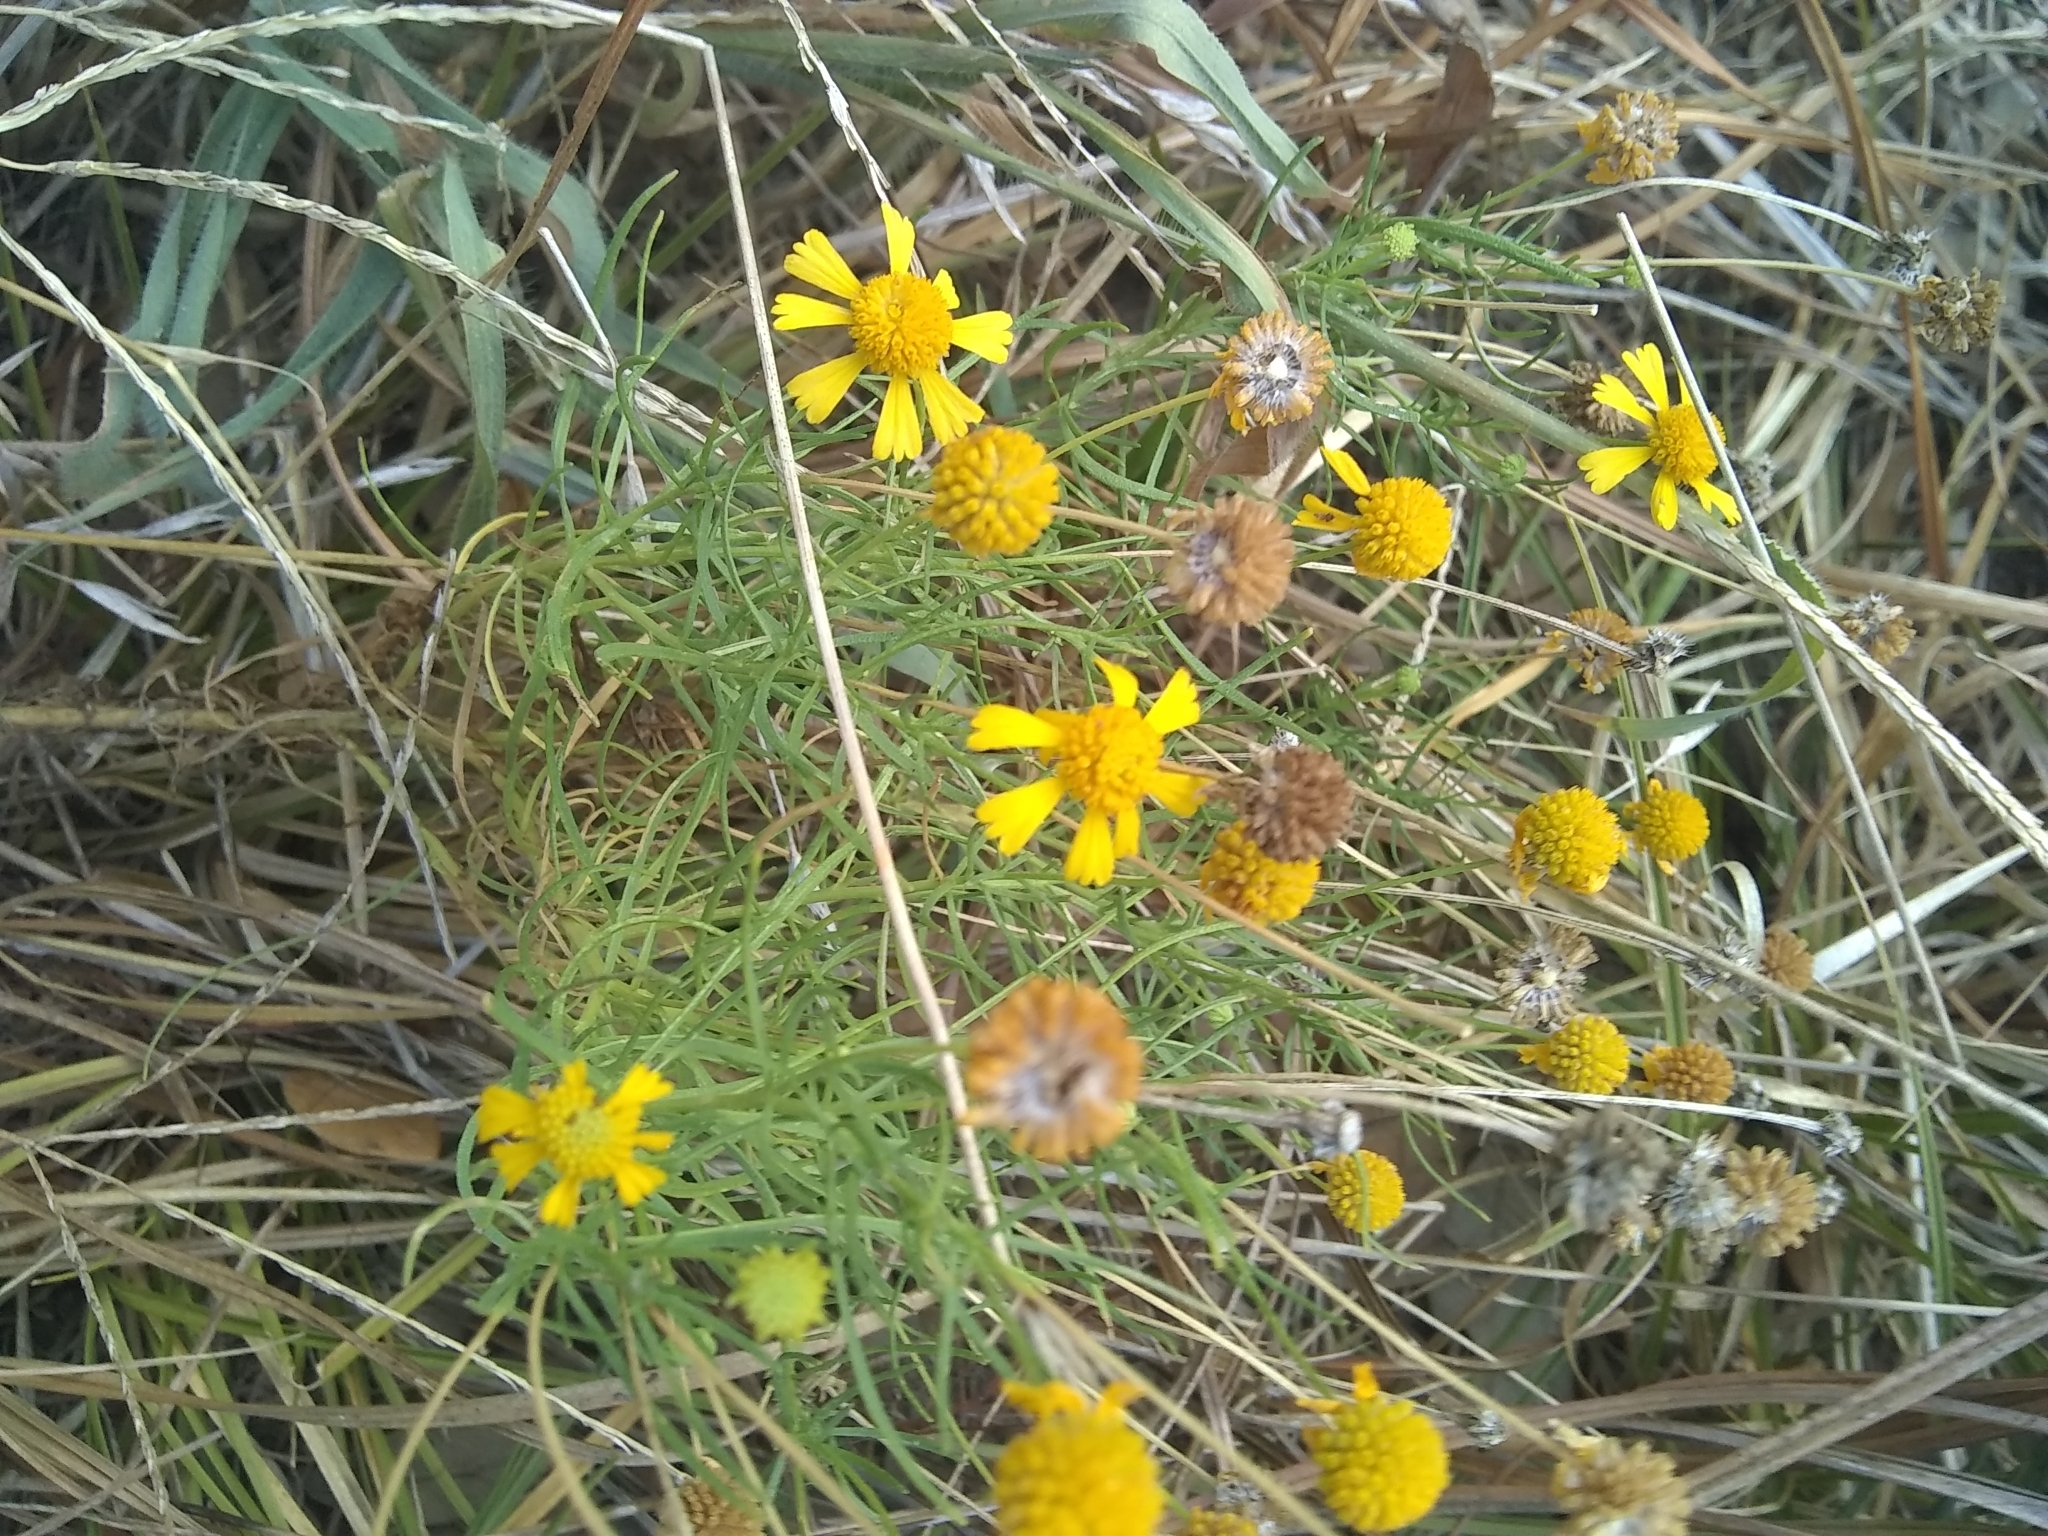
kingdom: Plantae
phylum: Tracheophyta
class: Magnoliopsida
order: Asterales
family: Asteraceae
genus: Helenium
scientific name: Helenium amarum
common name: Bitter sneezeweed
